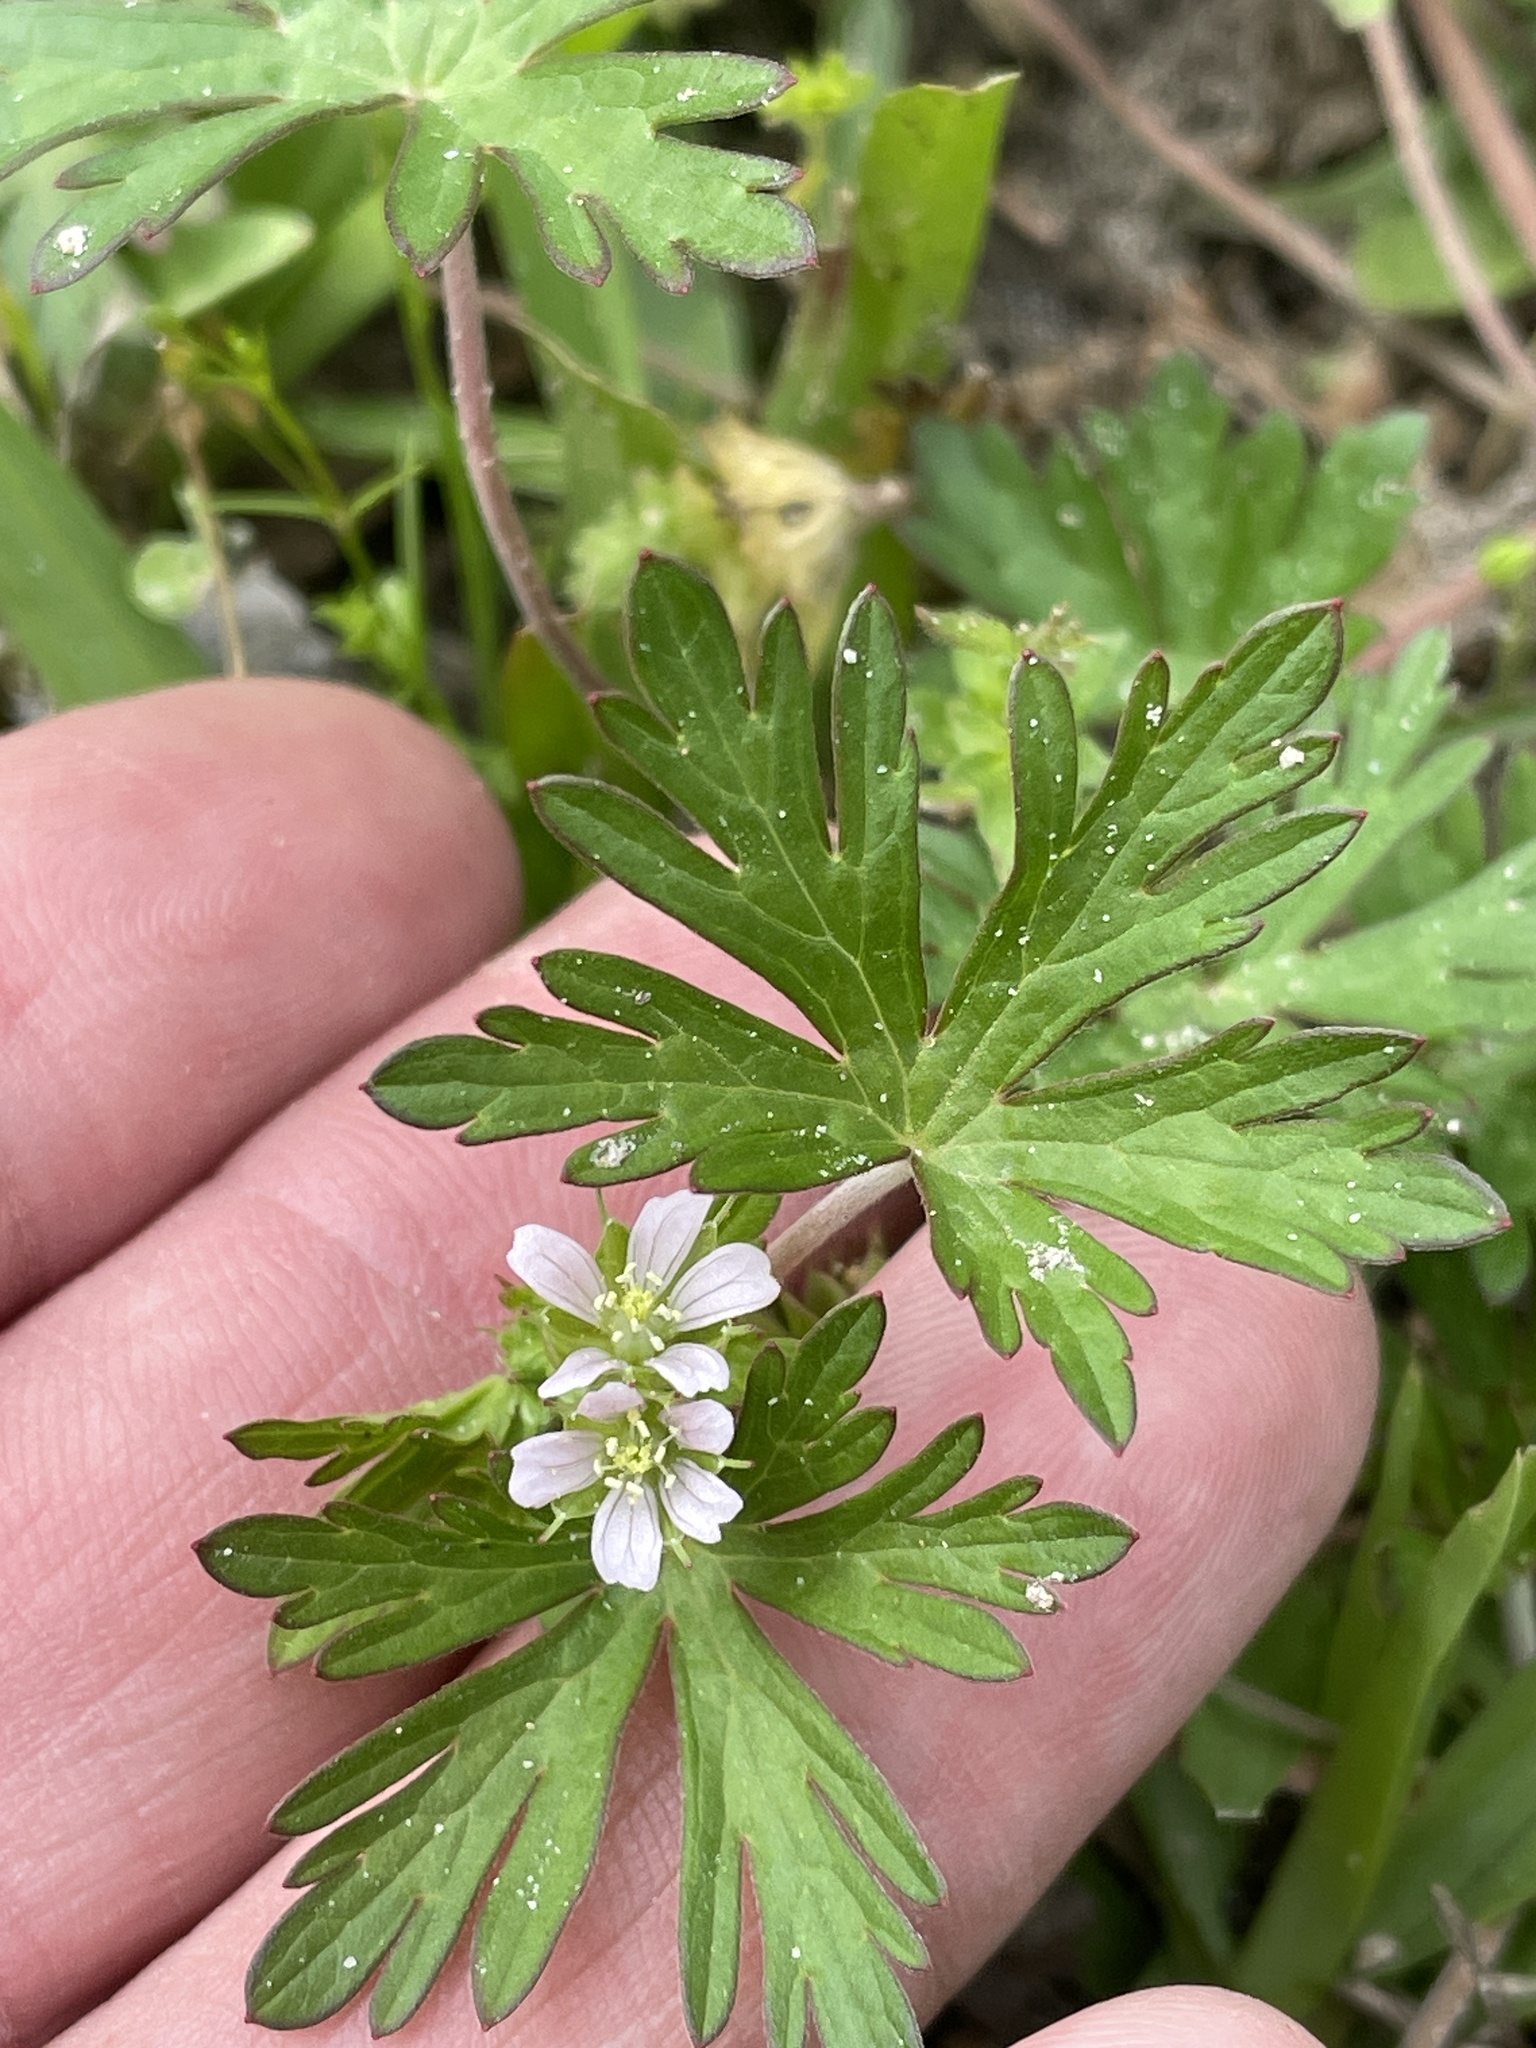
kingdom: Plantae
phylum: Tracheophyta
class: Magnoliopsida
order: Geraniales
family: Geraniaceae
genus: Geranium
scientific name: Geranium carolinianum
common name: Carolina crane's-bill
